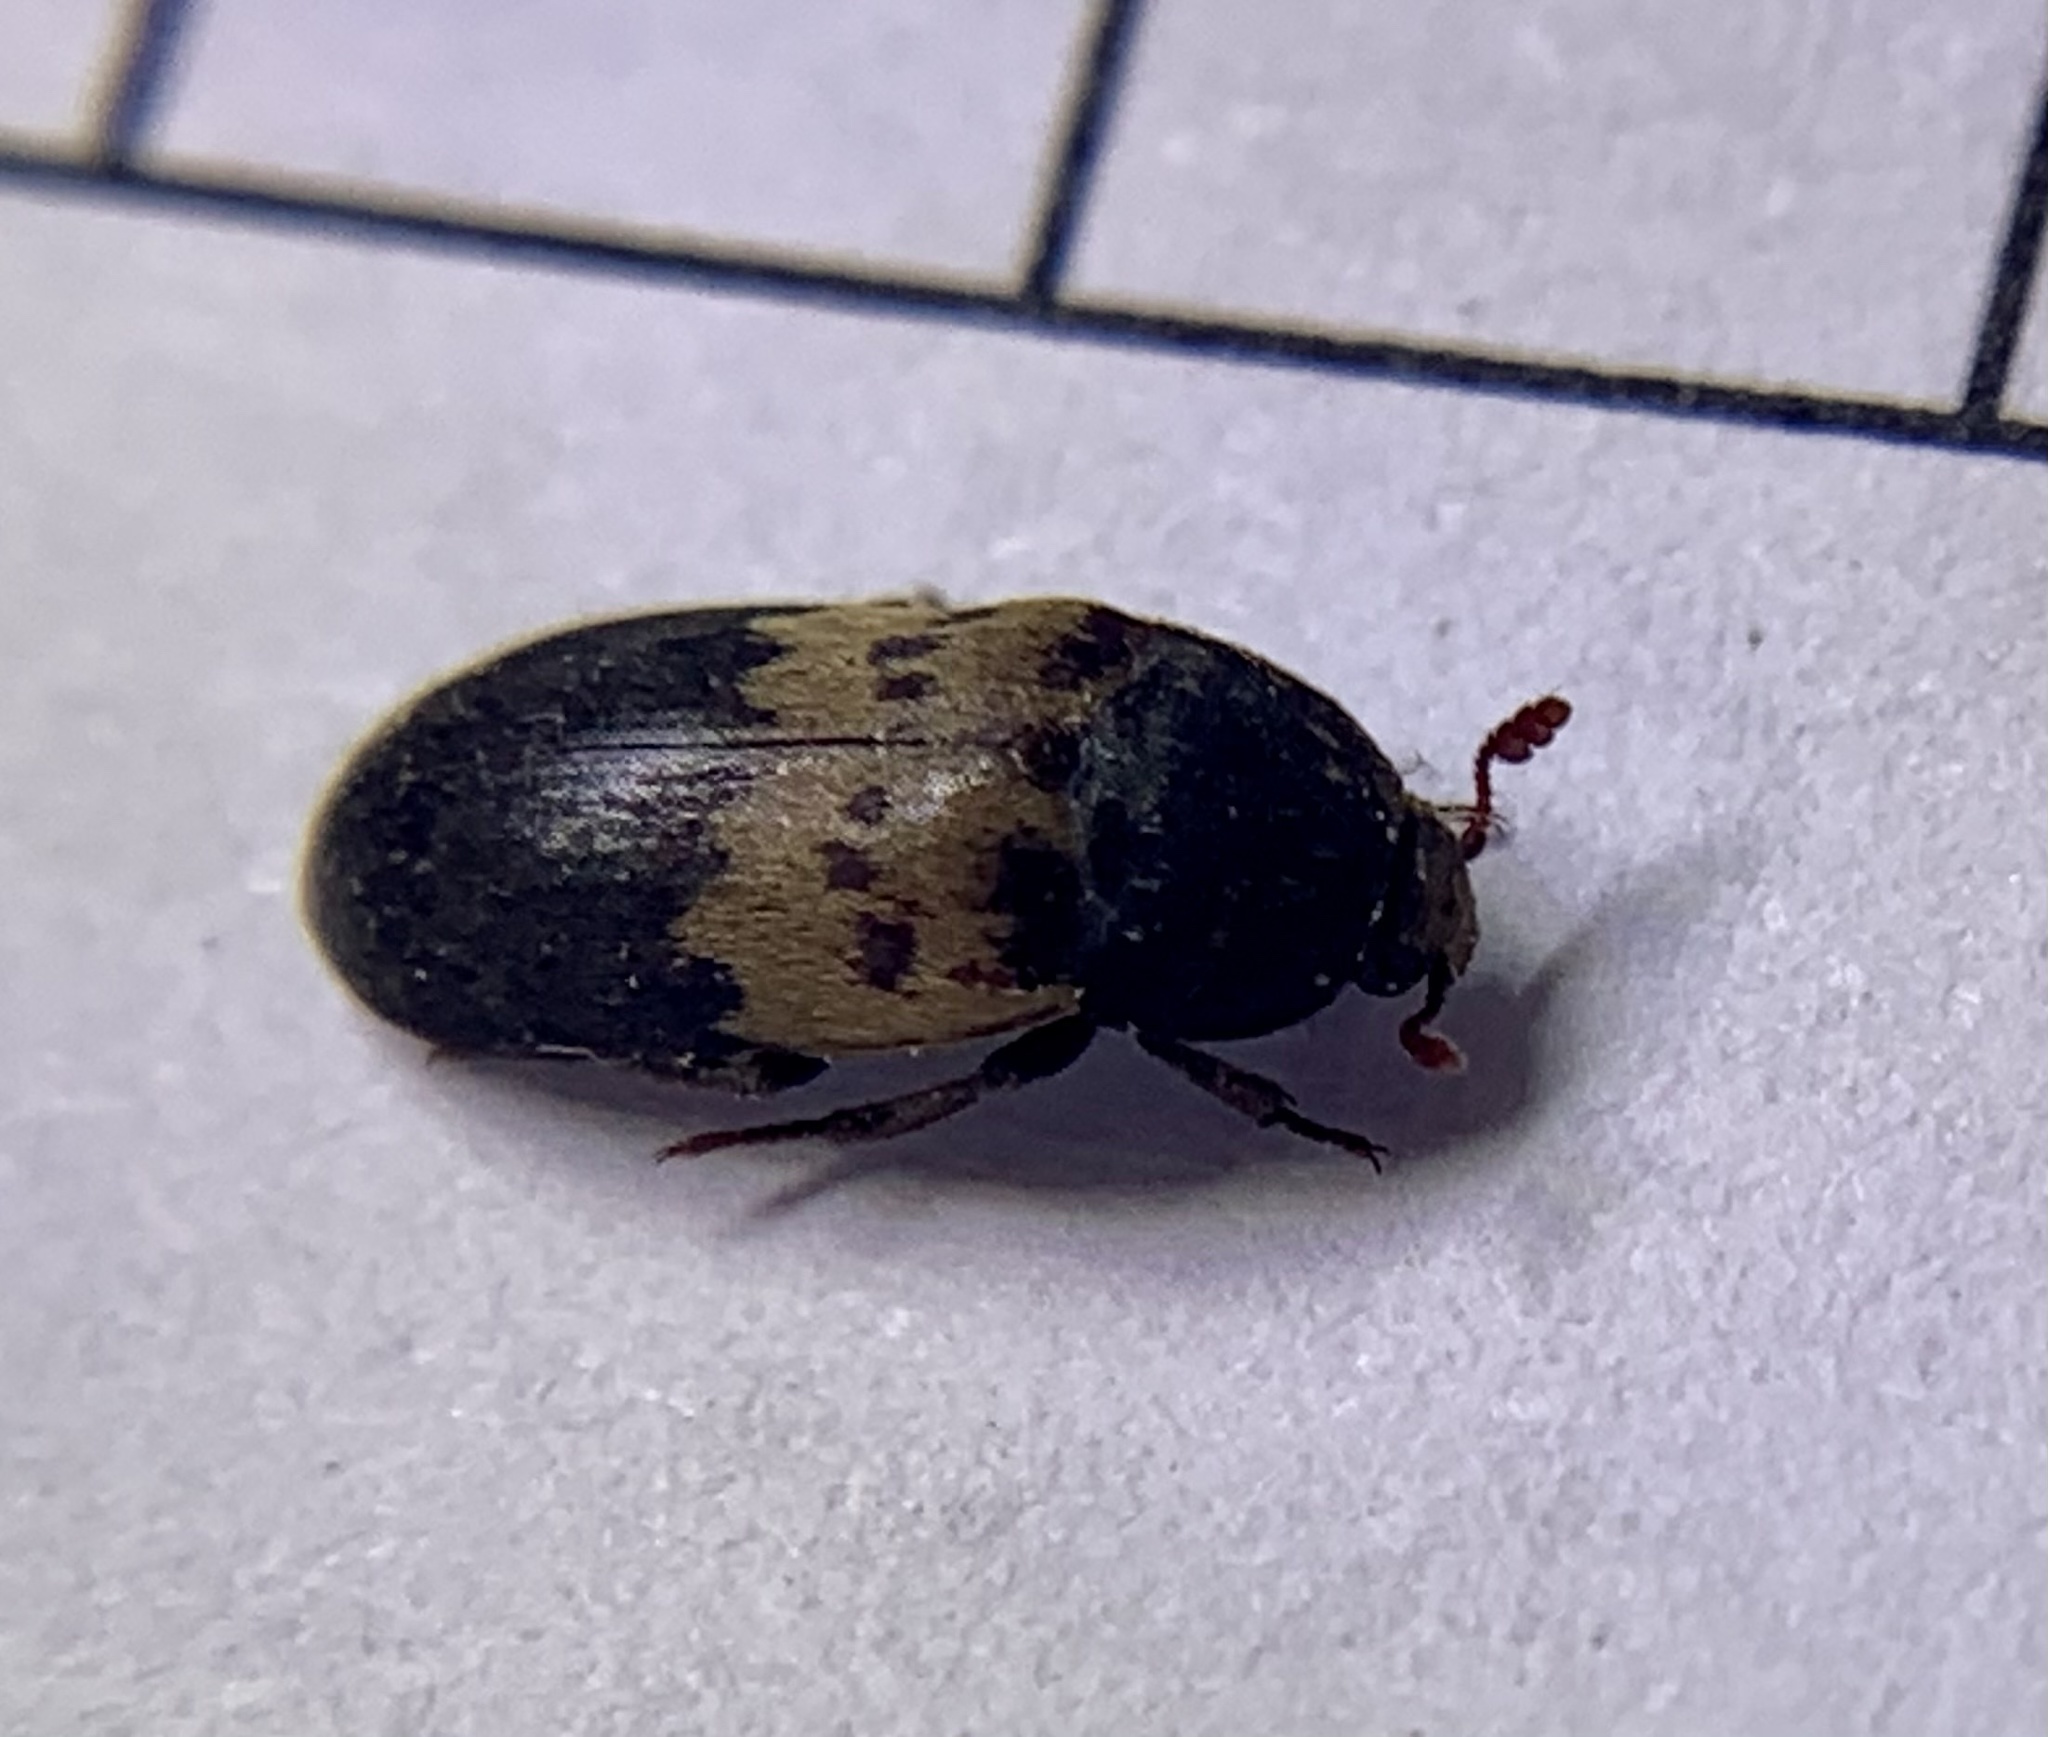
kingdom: Animalia
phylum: Arthropoda
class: Insecta
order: Coleoptera
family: Dermestidae
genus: Dermestes
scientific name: Dermestes lardarius
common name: Larder beetle
